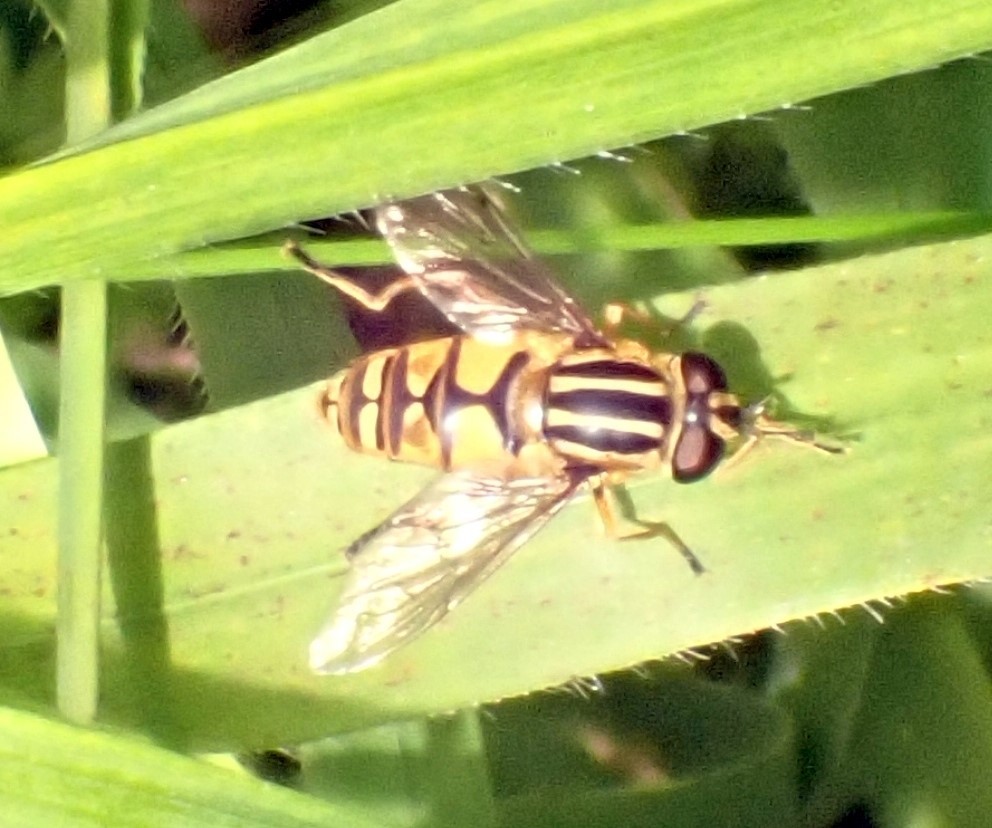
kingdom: Animalia
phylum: Arthropoda
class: Insecta
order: Diptera
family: Syrphidae
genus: Helophilus
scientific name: Helophilus pendulus
